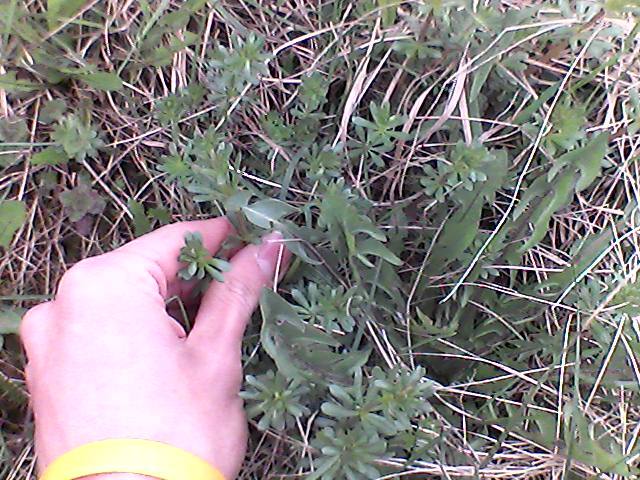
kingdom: Plantae
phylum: Tracheophyta
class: Magnoliopsida
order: Gentianales
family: Rubiaceae
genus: Galium
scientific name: Galium mollugo
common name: Hedge bedstraw
